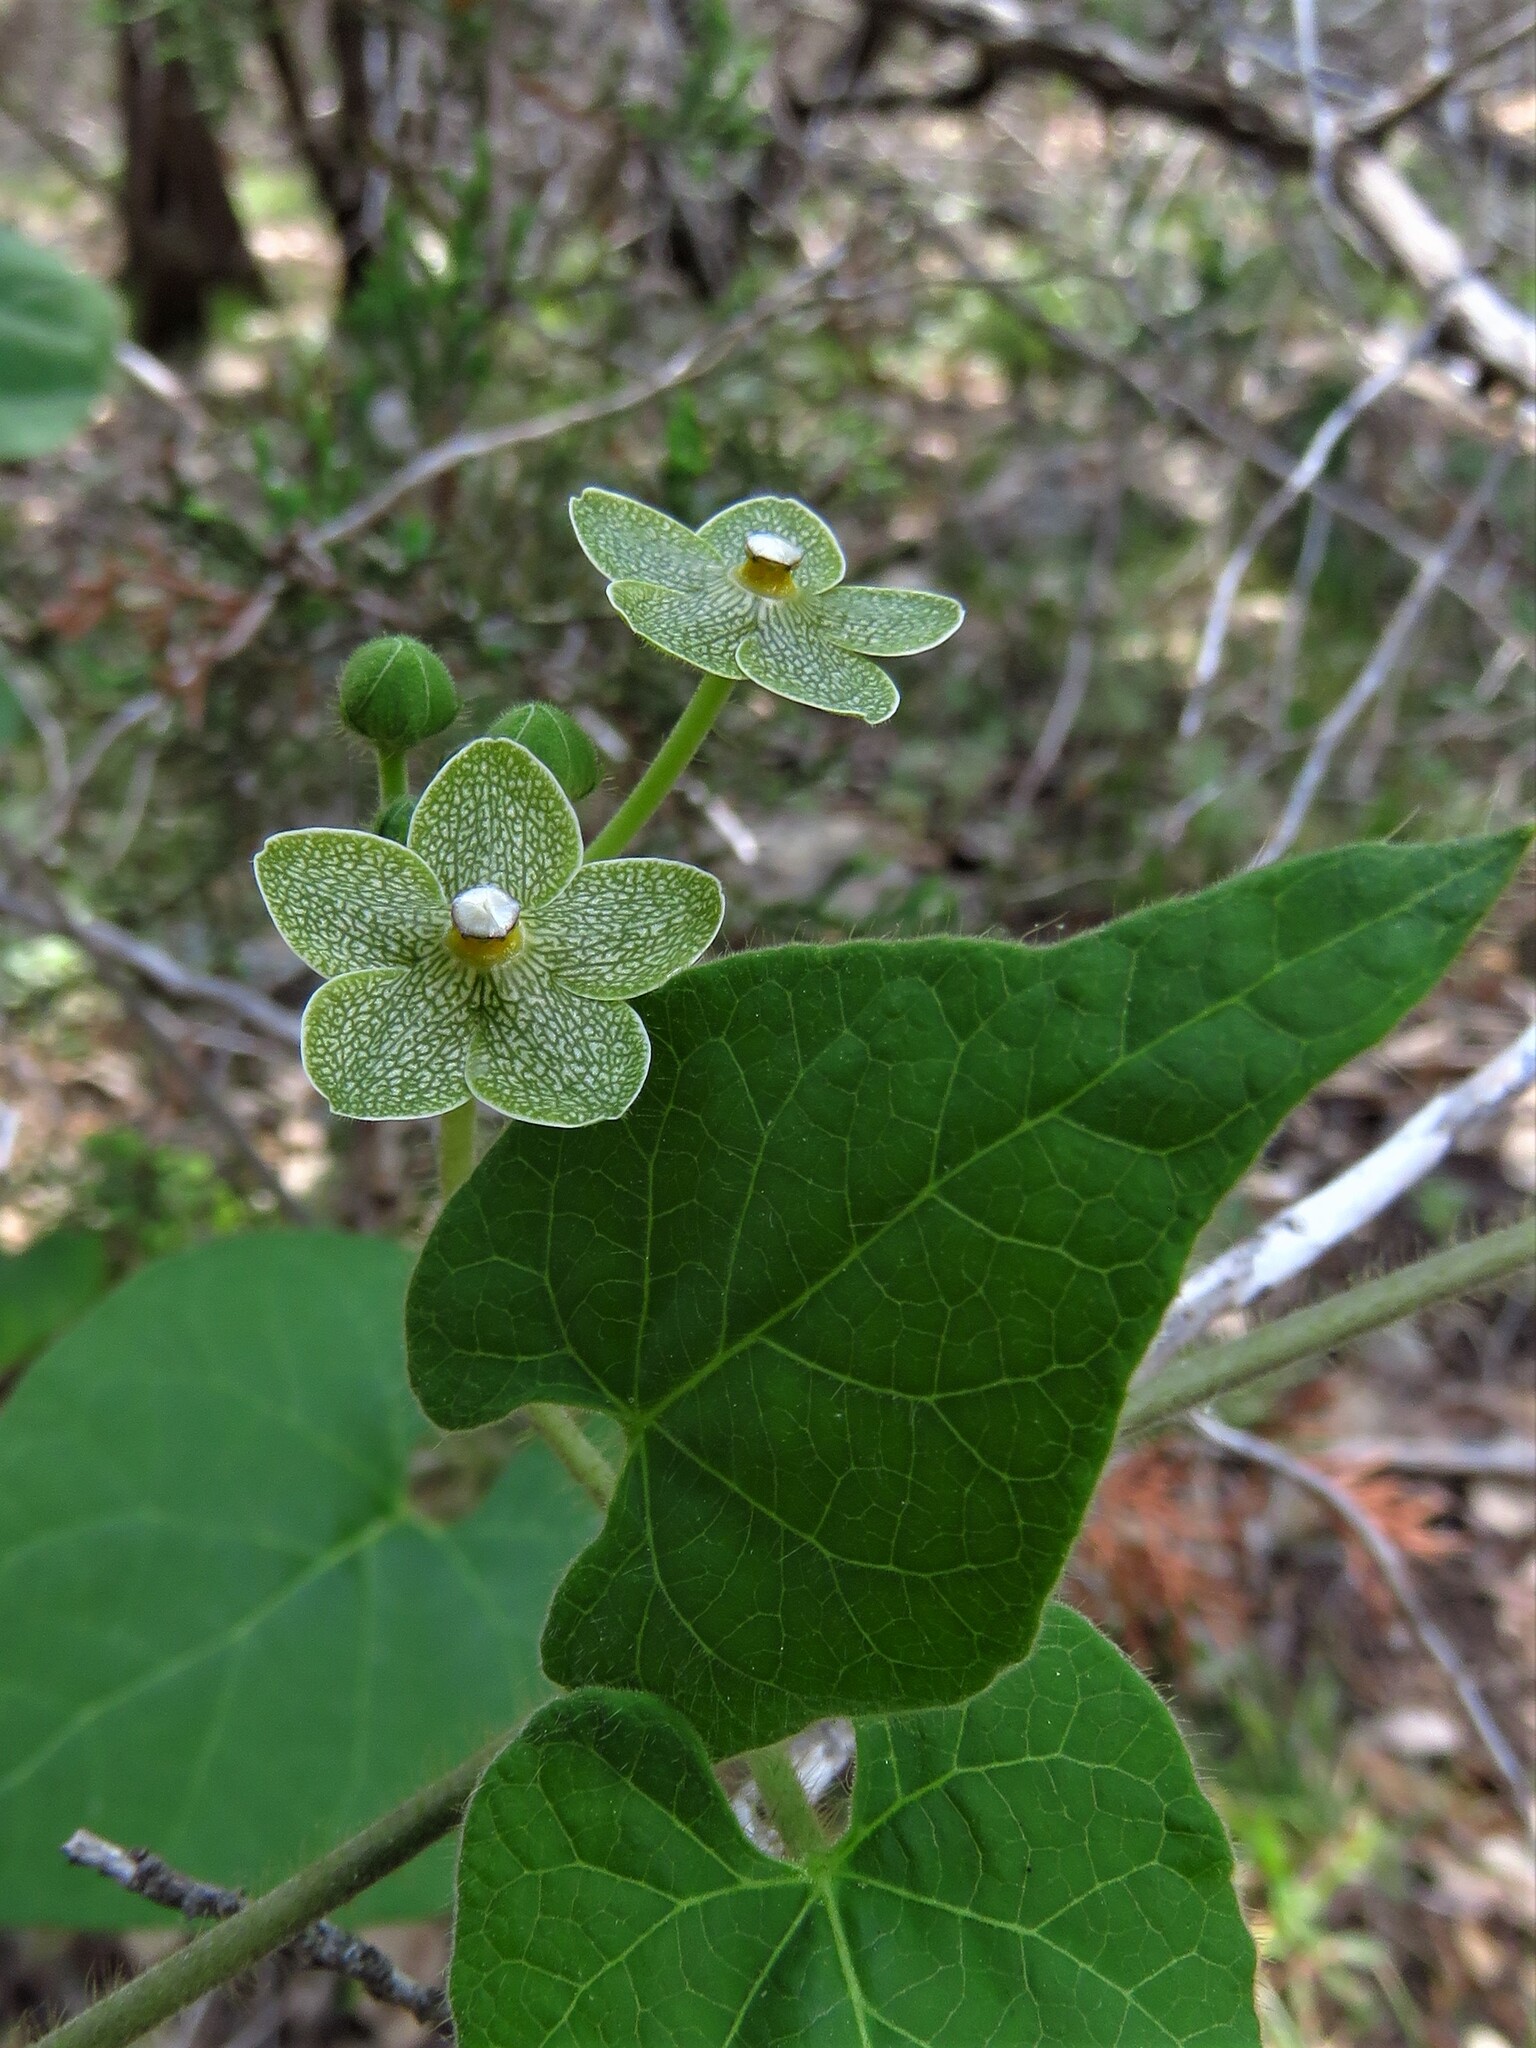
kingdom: Plantae
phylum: Tracheophyta
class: Magnoliopsida
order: Gentianales
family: Apocynaceae
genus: Dictyanthus
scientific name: Dictyanthus reticulatus
